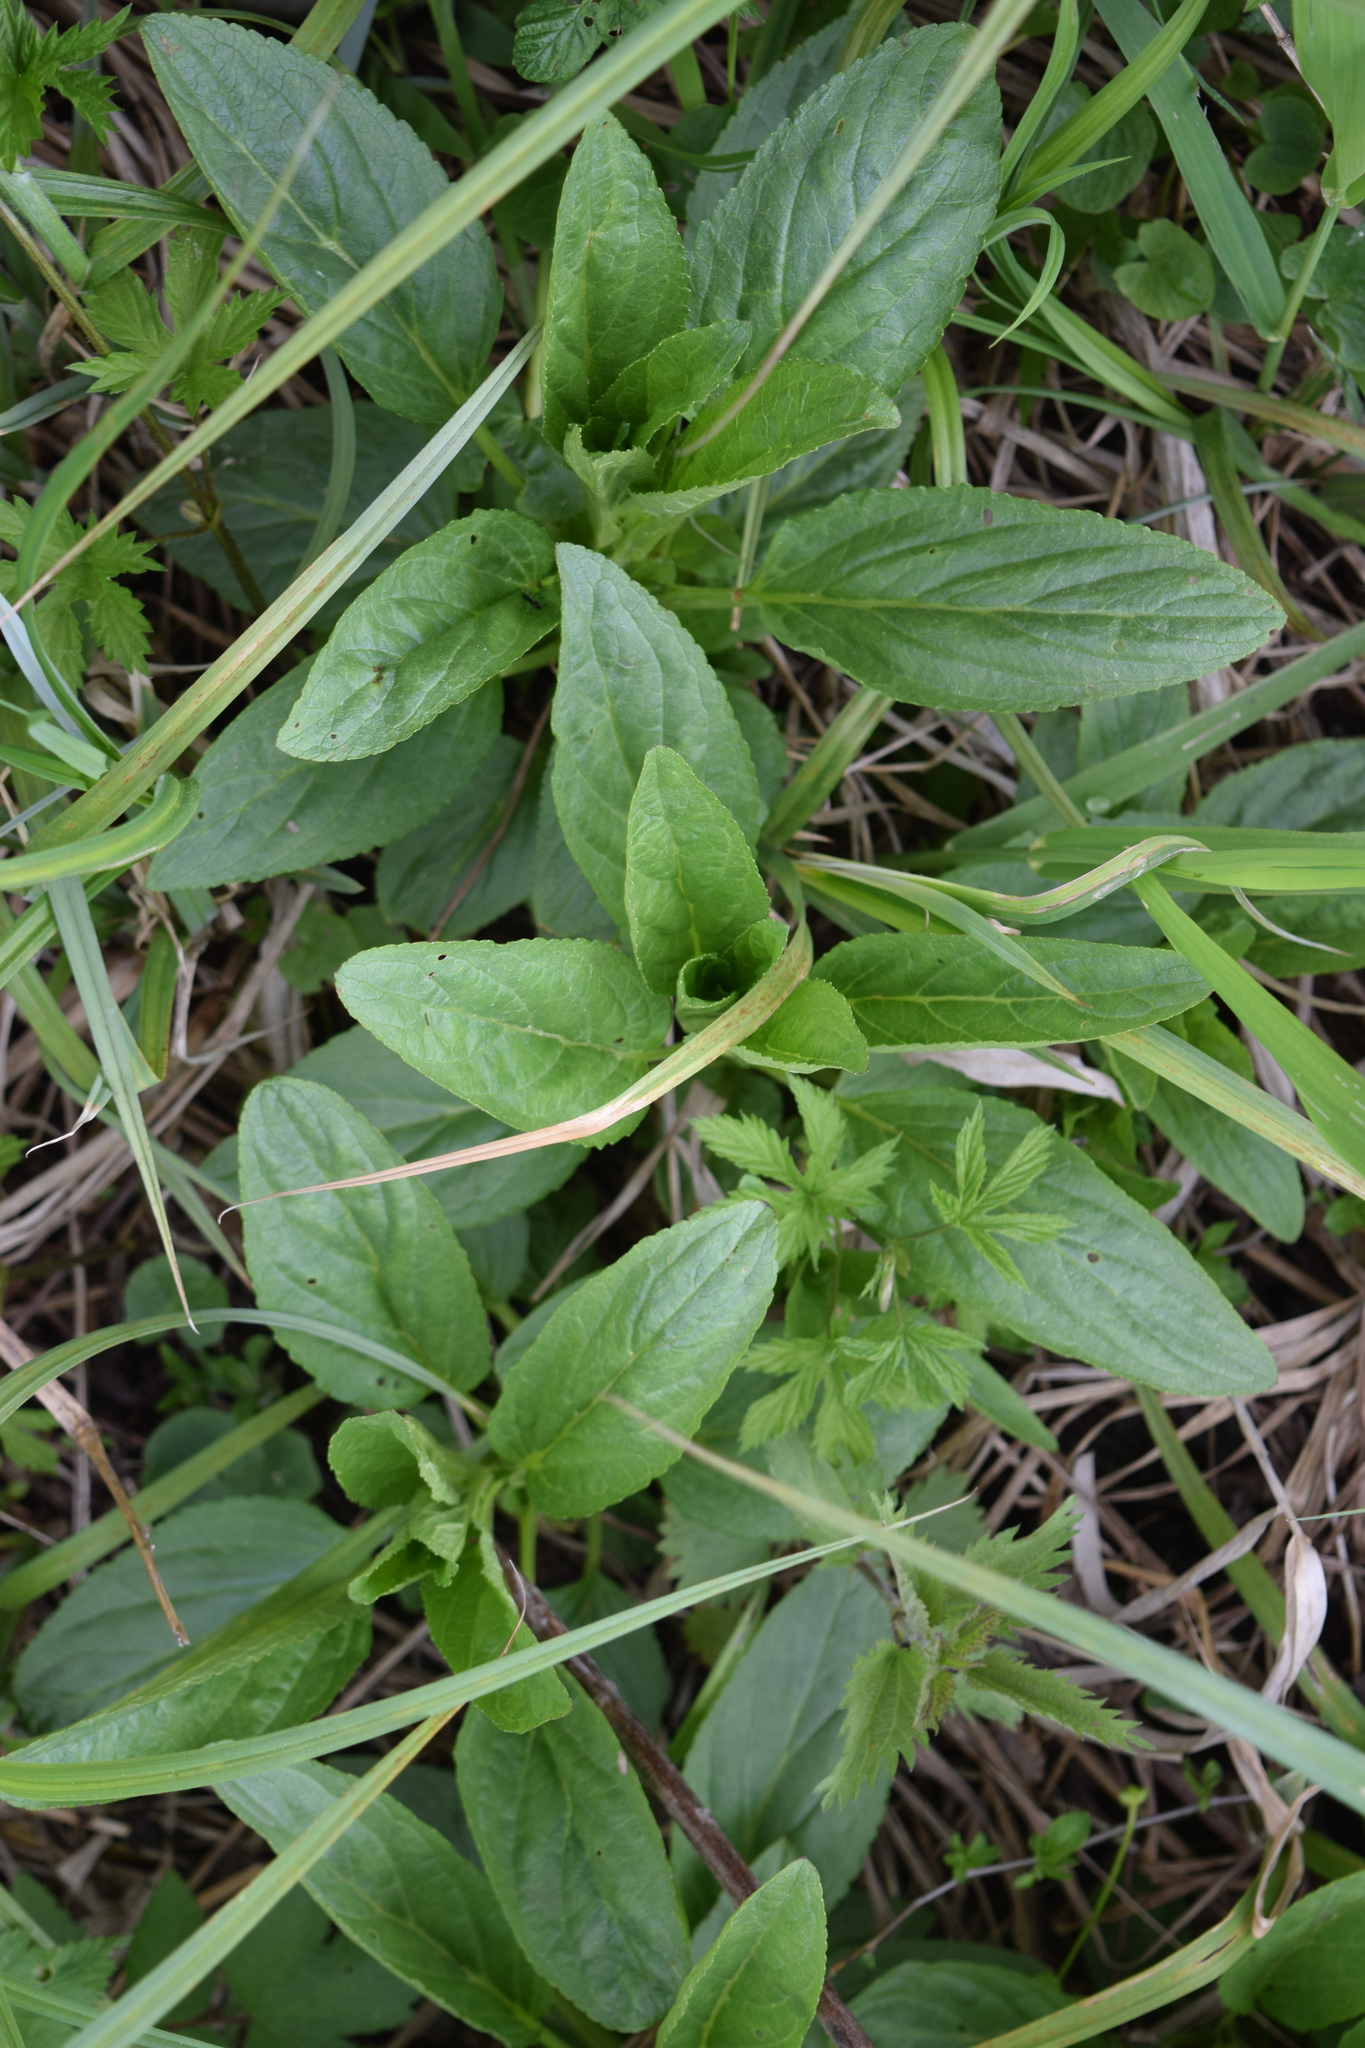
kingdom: Plantae
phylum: Tracheophyta
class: Magnoliopsida
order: Lamiales
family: Scrophulariaceae
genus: Scrophularia
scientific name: Scrophularia umbrosa
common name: Green figwort
